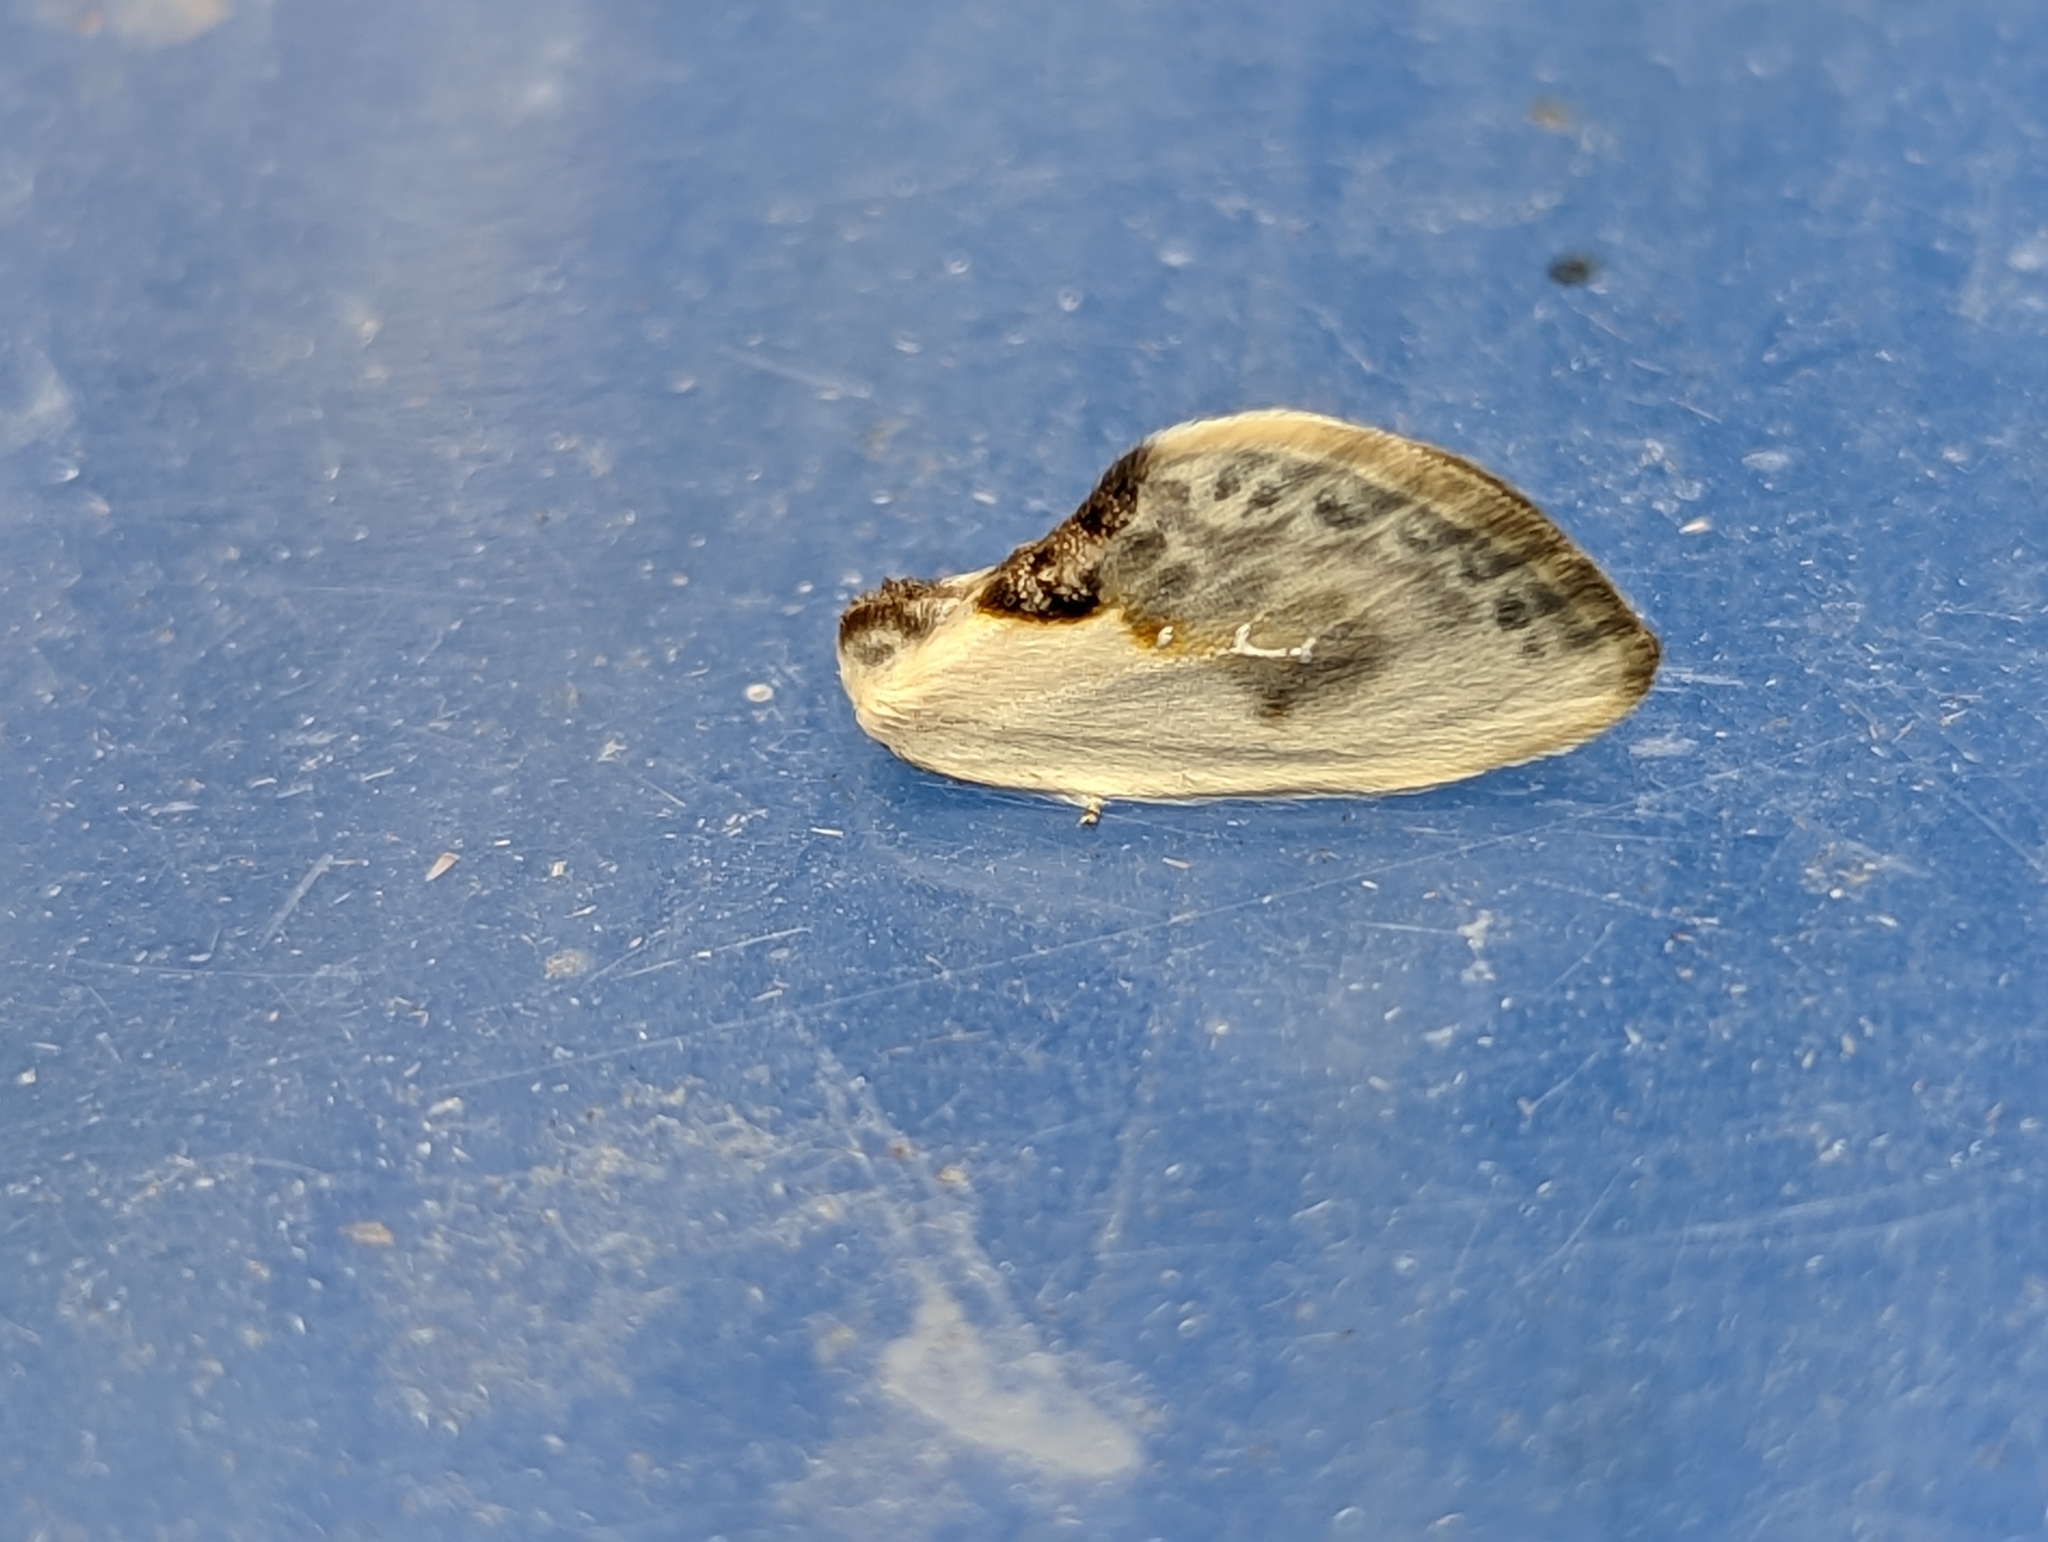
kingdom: Animalia
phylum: Arthropoda
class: Insecta
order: Lepidoptera
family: Drepanidae
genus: Cilix
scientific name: Cilix glaucata
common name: Chinese character
